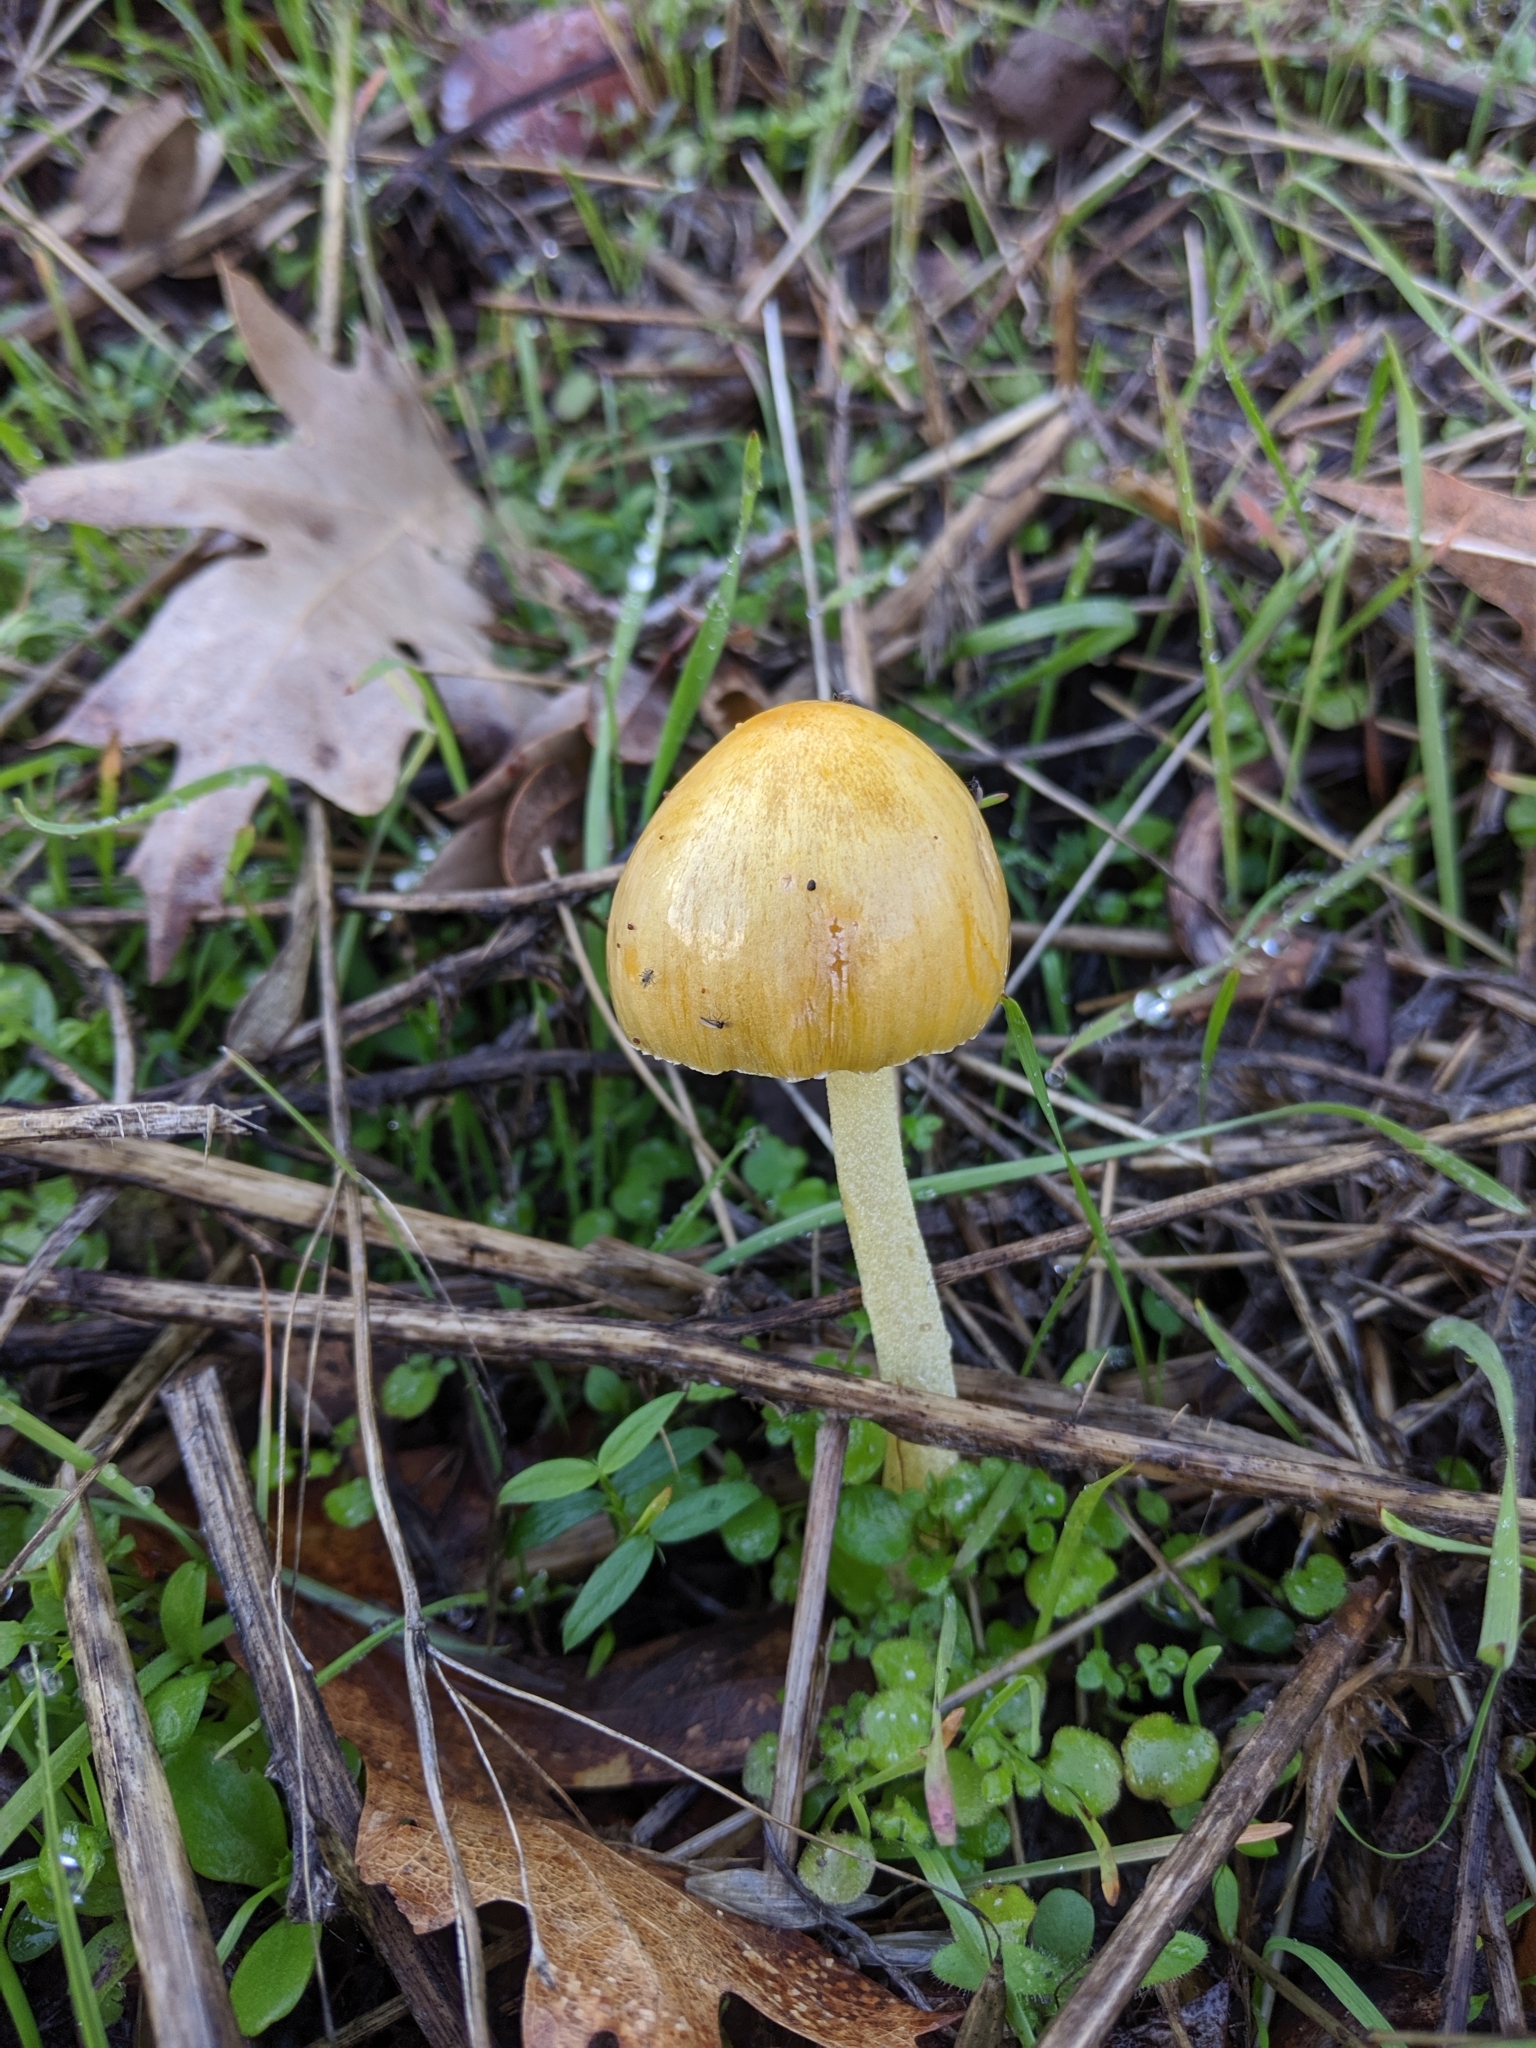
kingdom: Fungi
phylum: Basidiomycota
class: Agaricomycetes
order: Agaricales
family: Bolbitiaceae
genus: Bolbitius
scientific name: Bolbitius titubans
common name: Yellow fieldcap
